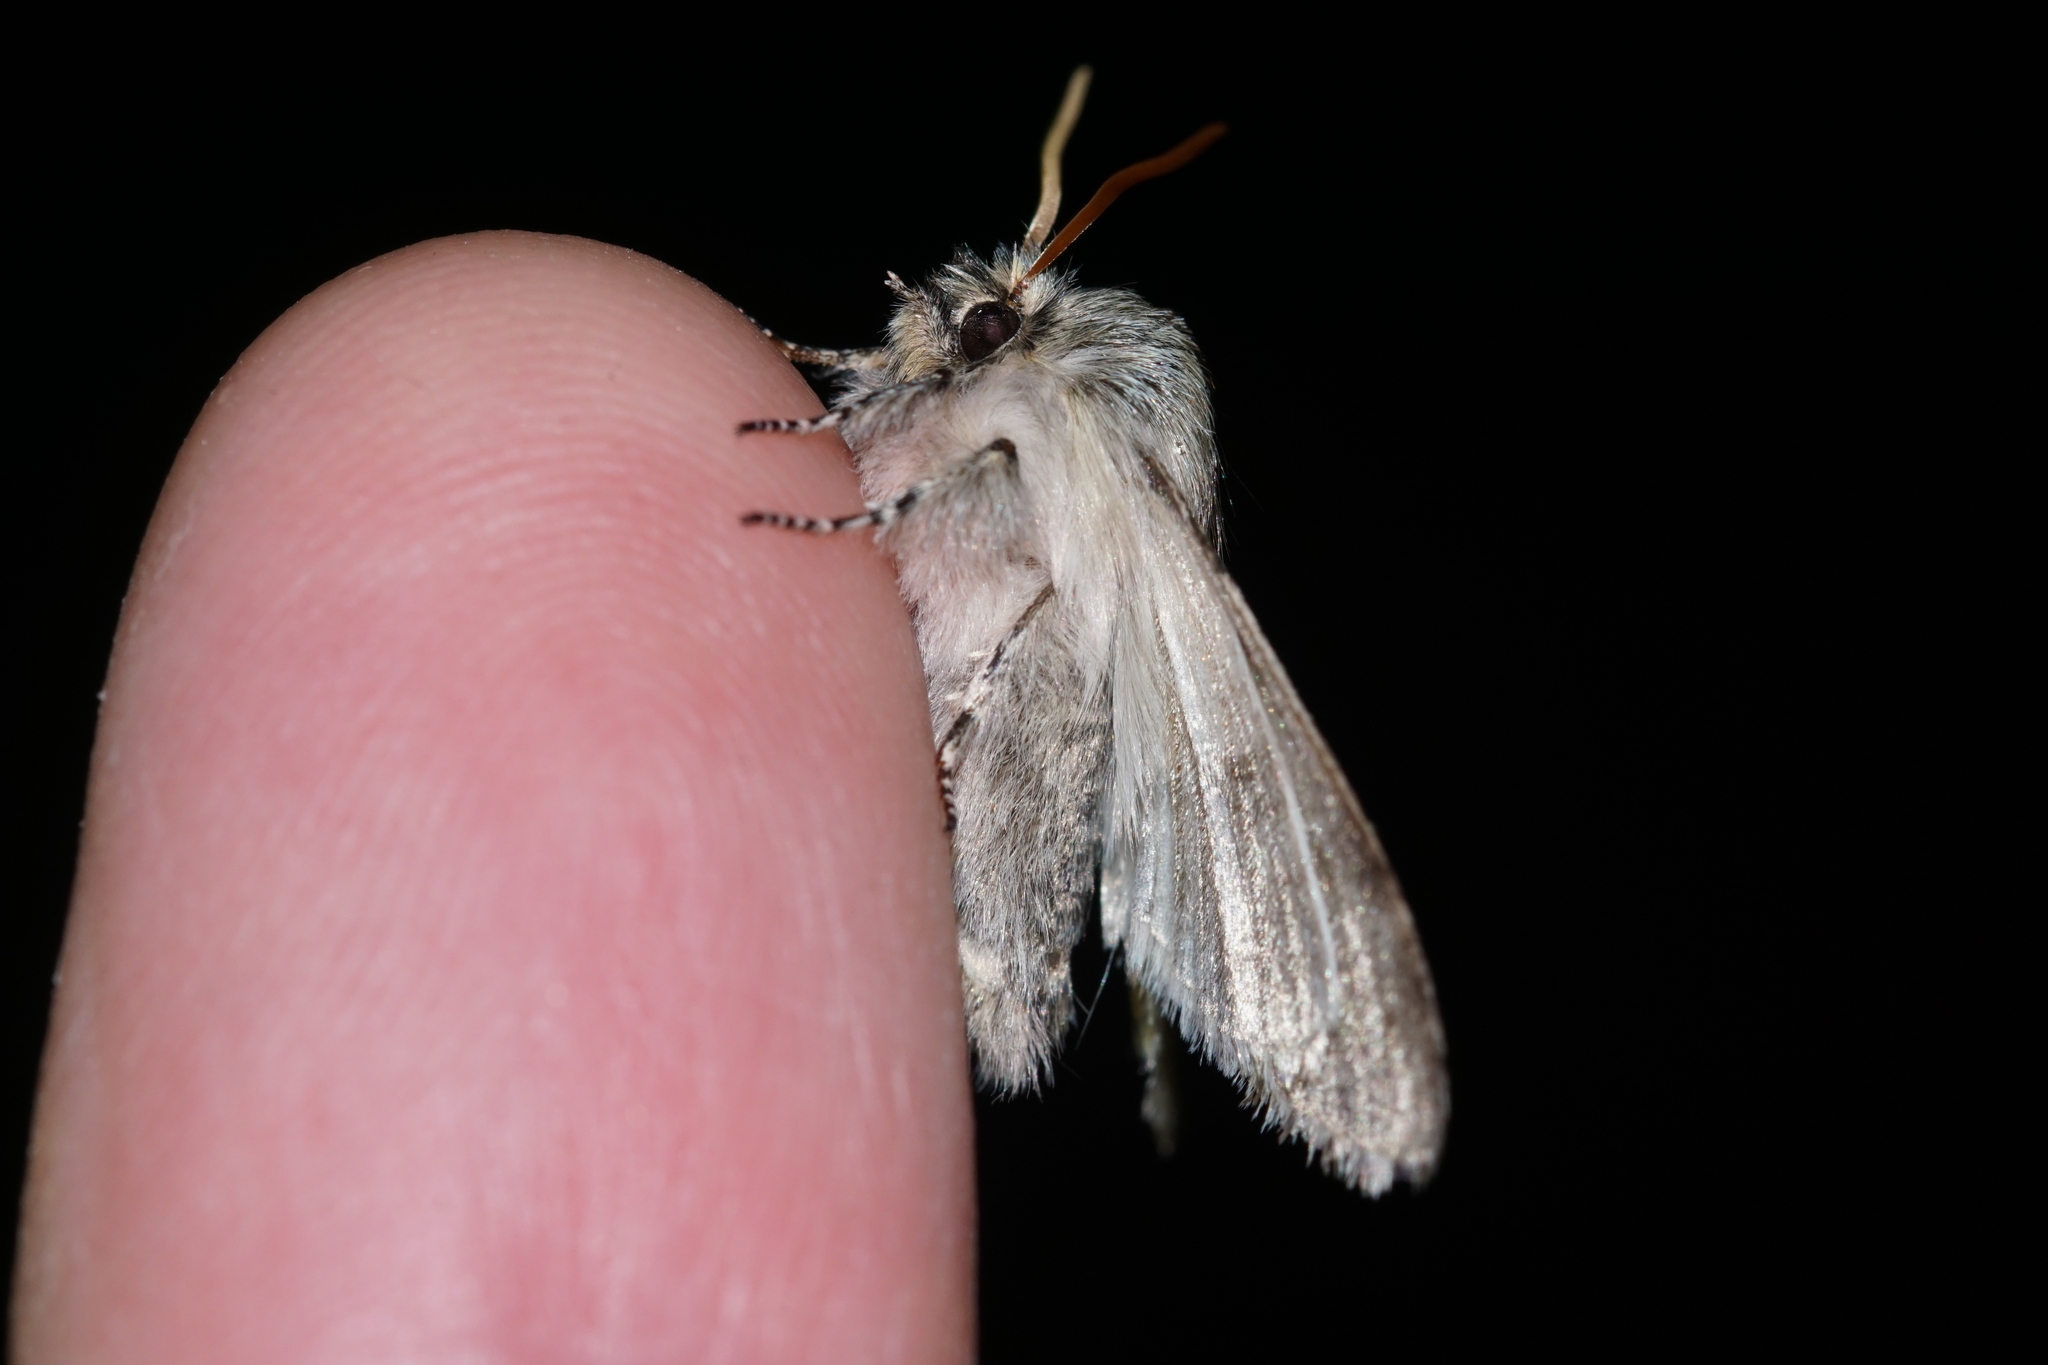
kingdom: Animalia
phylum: Arthropoda
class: Insecta
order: Lepidoptera
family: Drepanidae
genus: Achlya
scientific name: Achlya flavicornis
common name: Yellow horned
